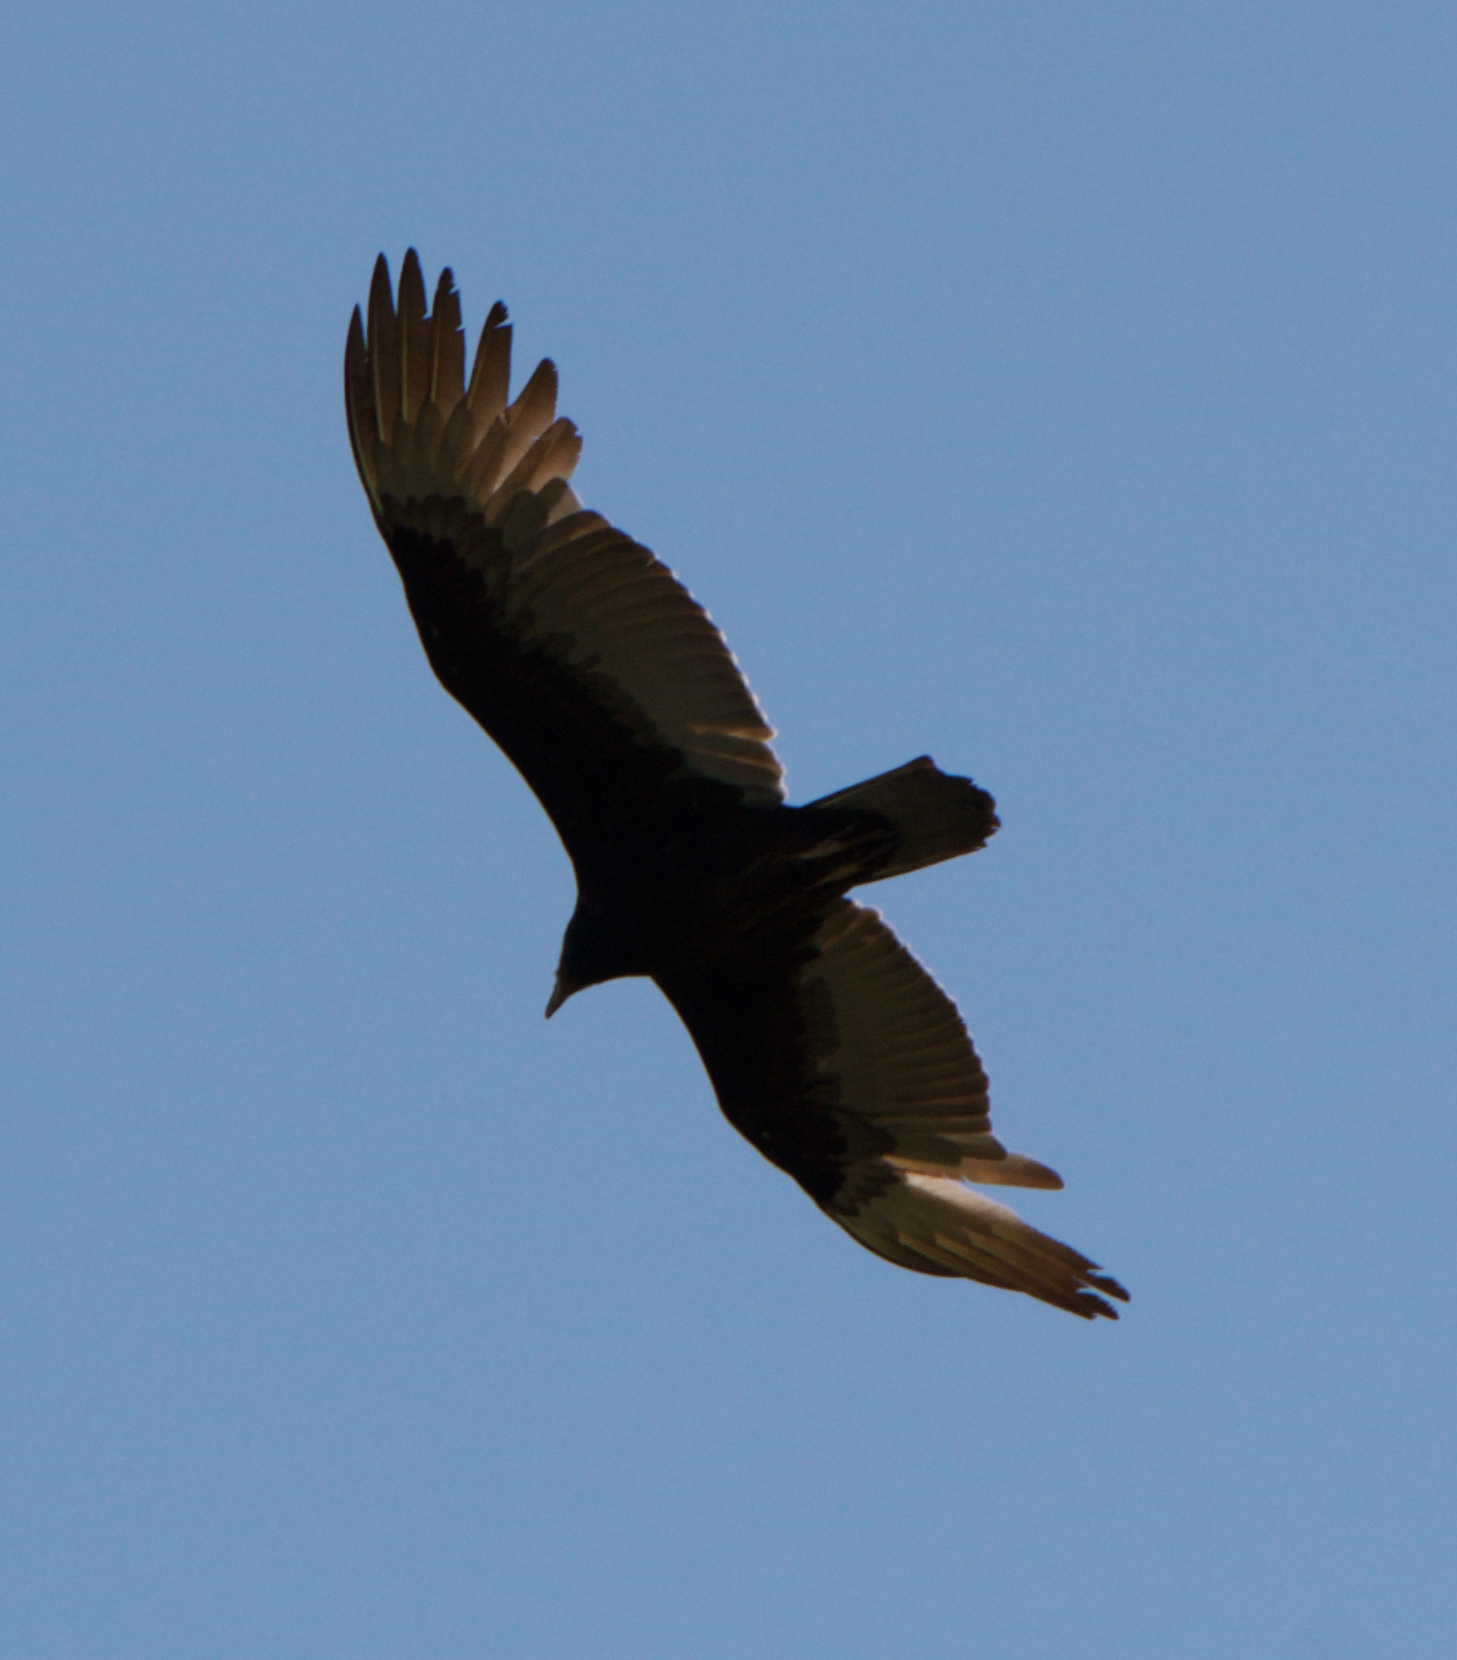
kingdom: Animalia
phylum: Chordata
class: Aves
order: Accipitriformes
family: Cathartidae
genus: Cathartes
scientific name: Cathartes aura
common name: Turkey vulture
